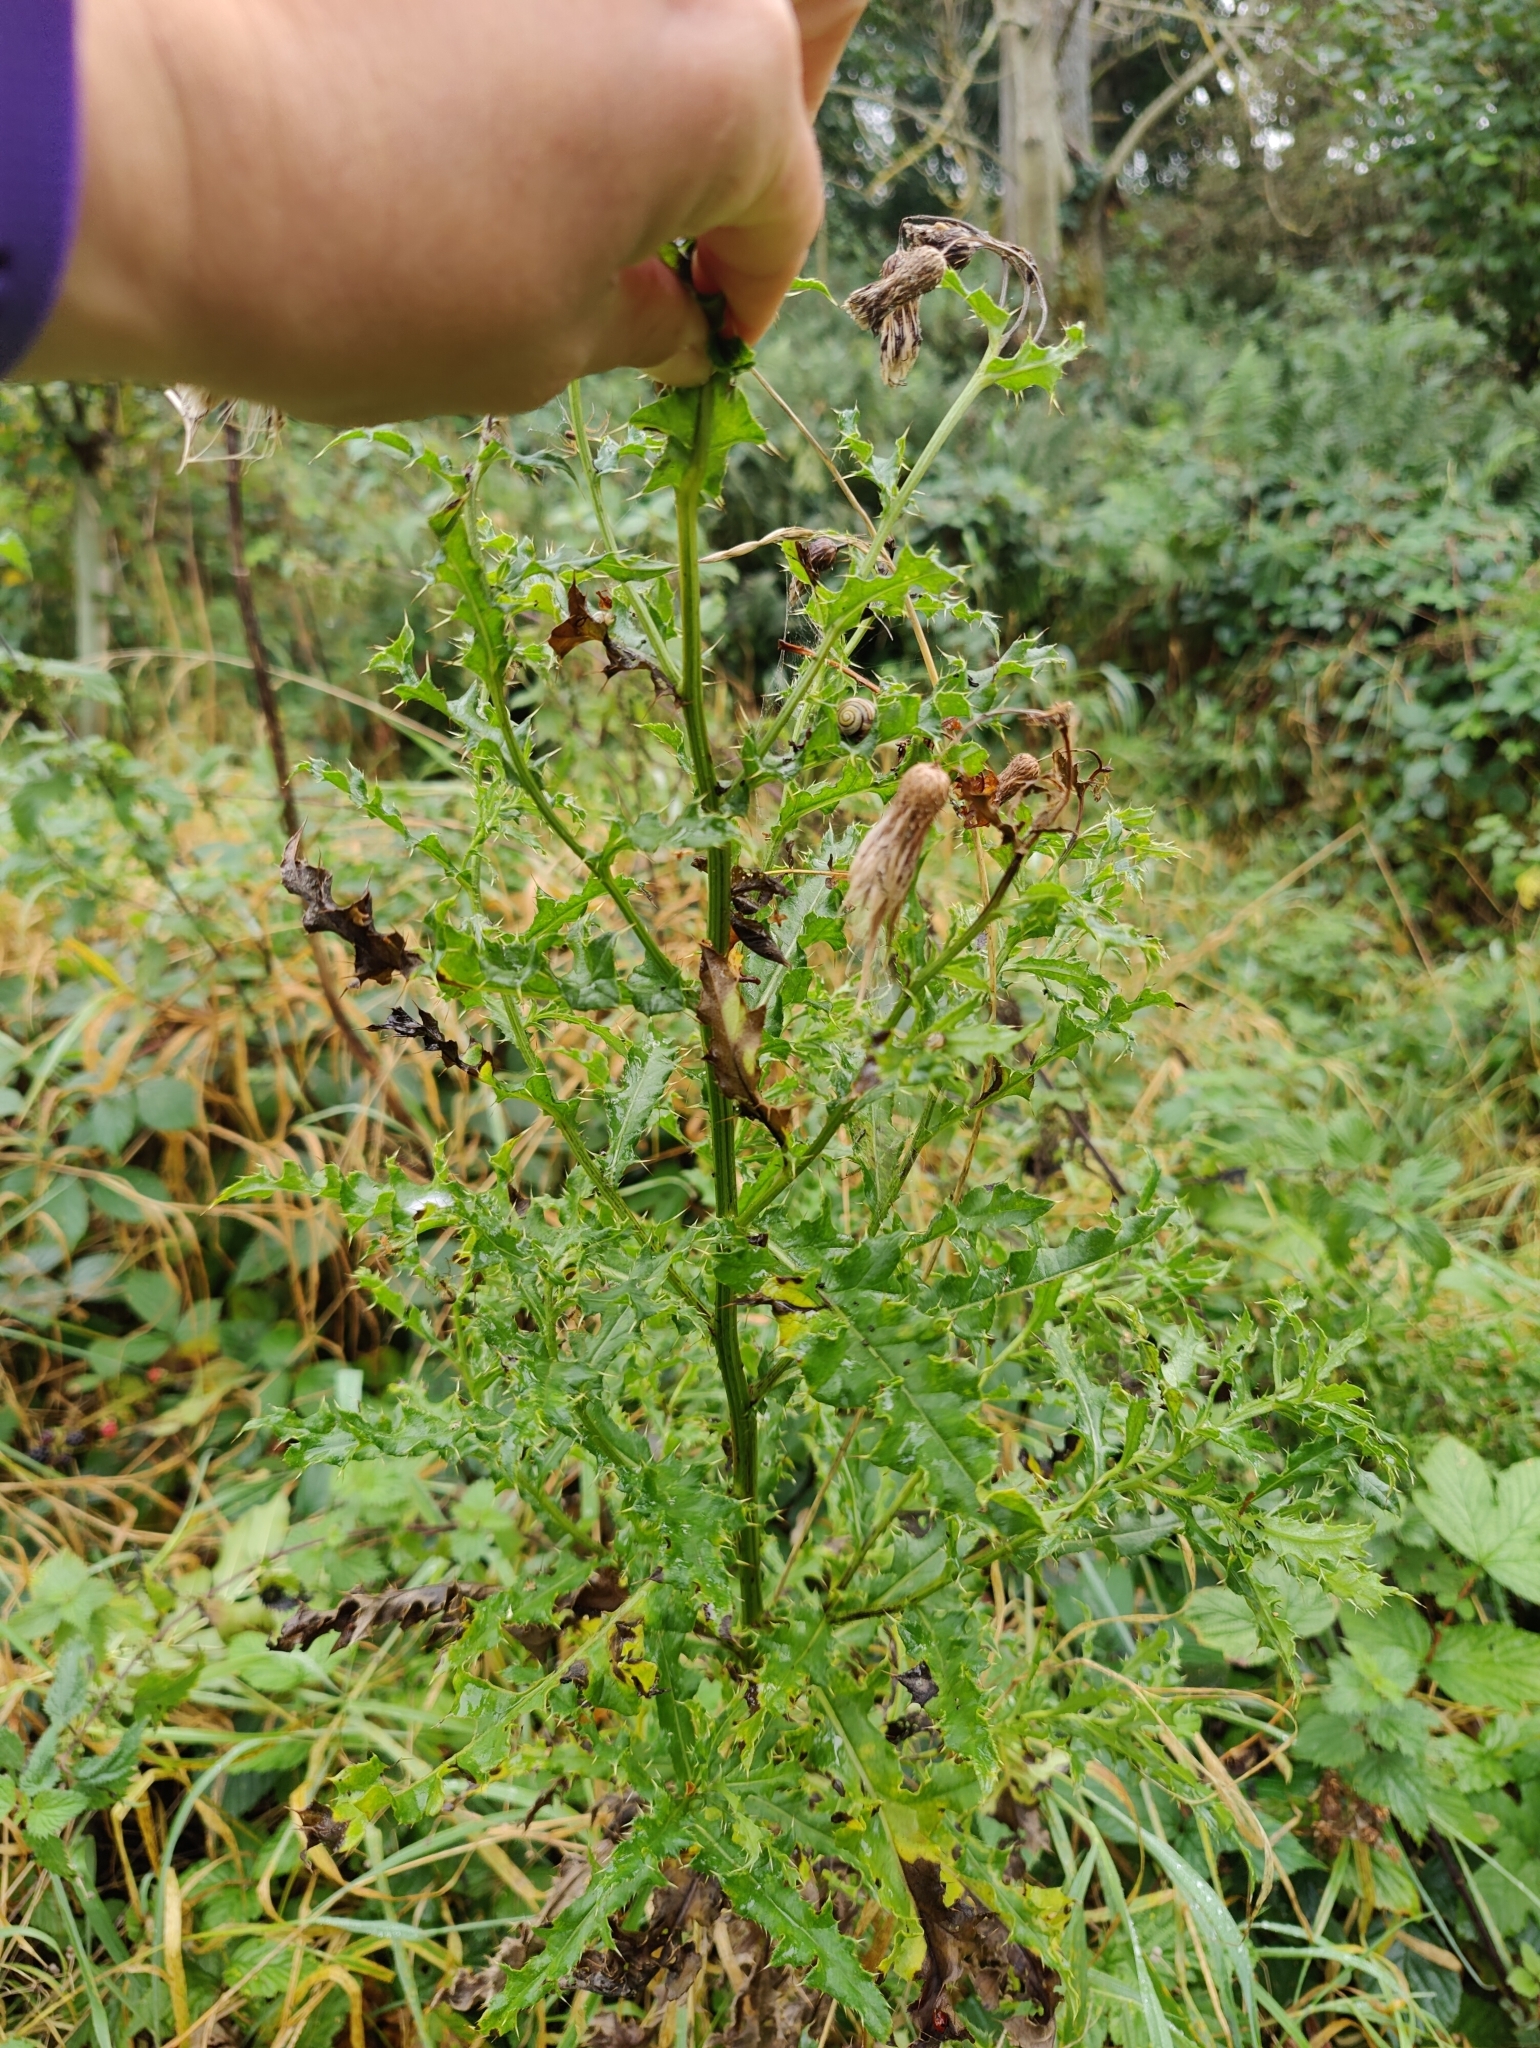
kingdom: Plantae
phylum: Tracheophyta
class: Magnoliopsida
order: Asterales
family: Asteraceae
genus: Cirsium
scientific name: Cirsium arvense
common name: Creeping thistle
